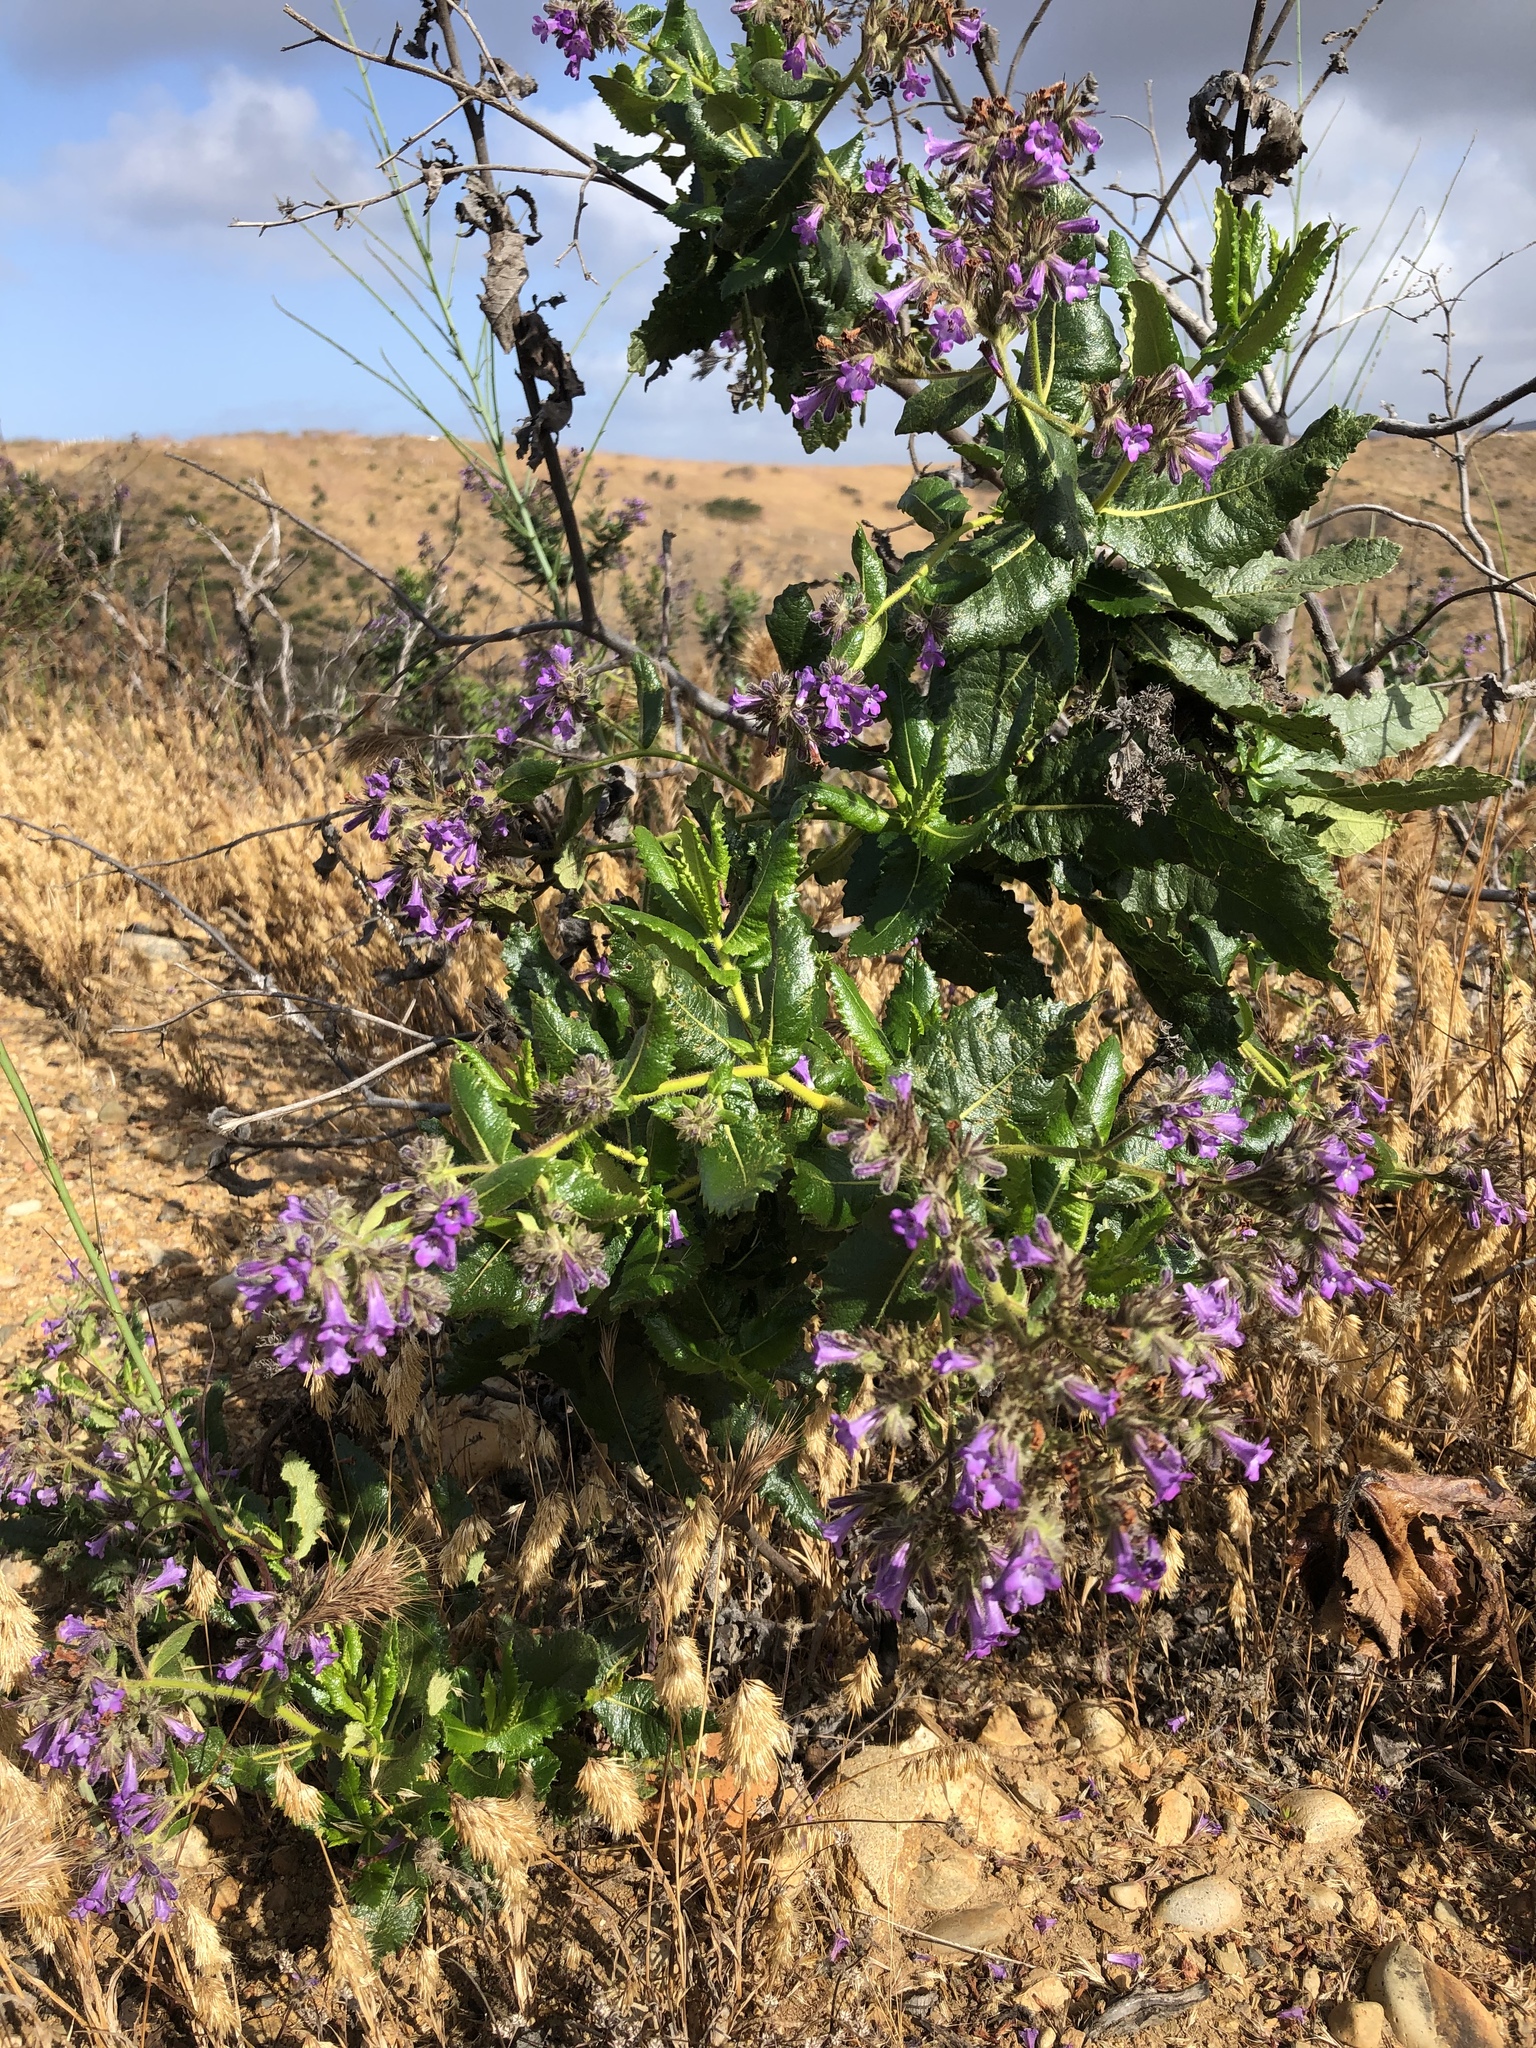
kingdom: Plantae
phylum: Tracheophyta
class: Magnoliopsida
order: Boraginales
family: Namaceae
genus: Eriodictyon
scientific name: Eriodictyon sessilifolium
